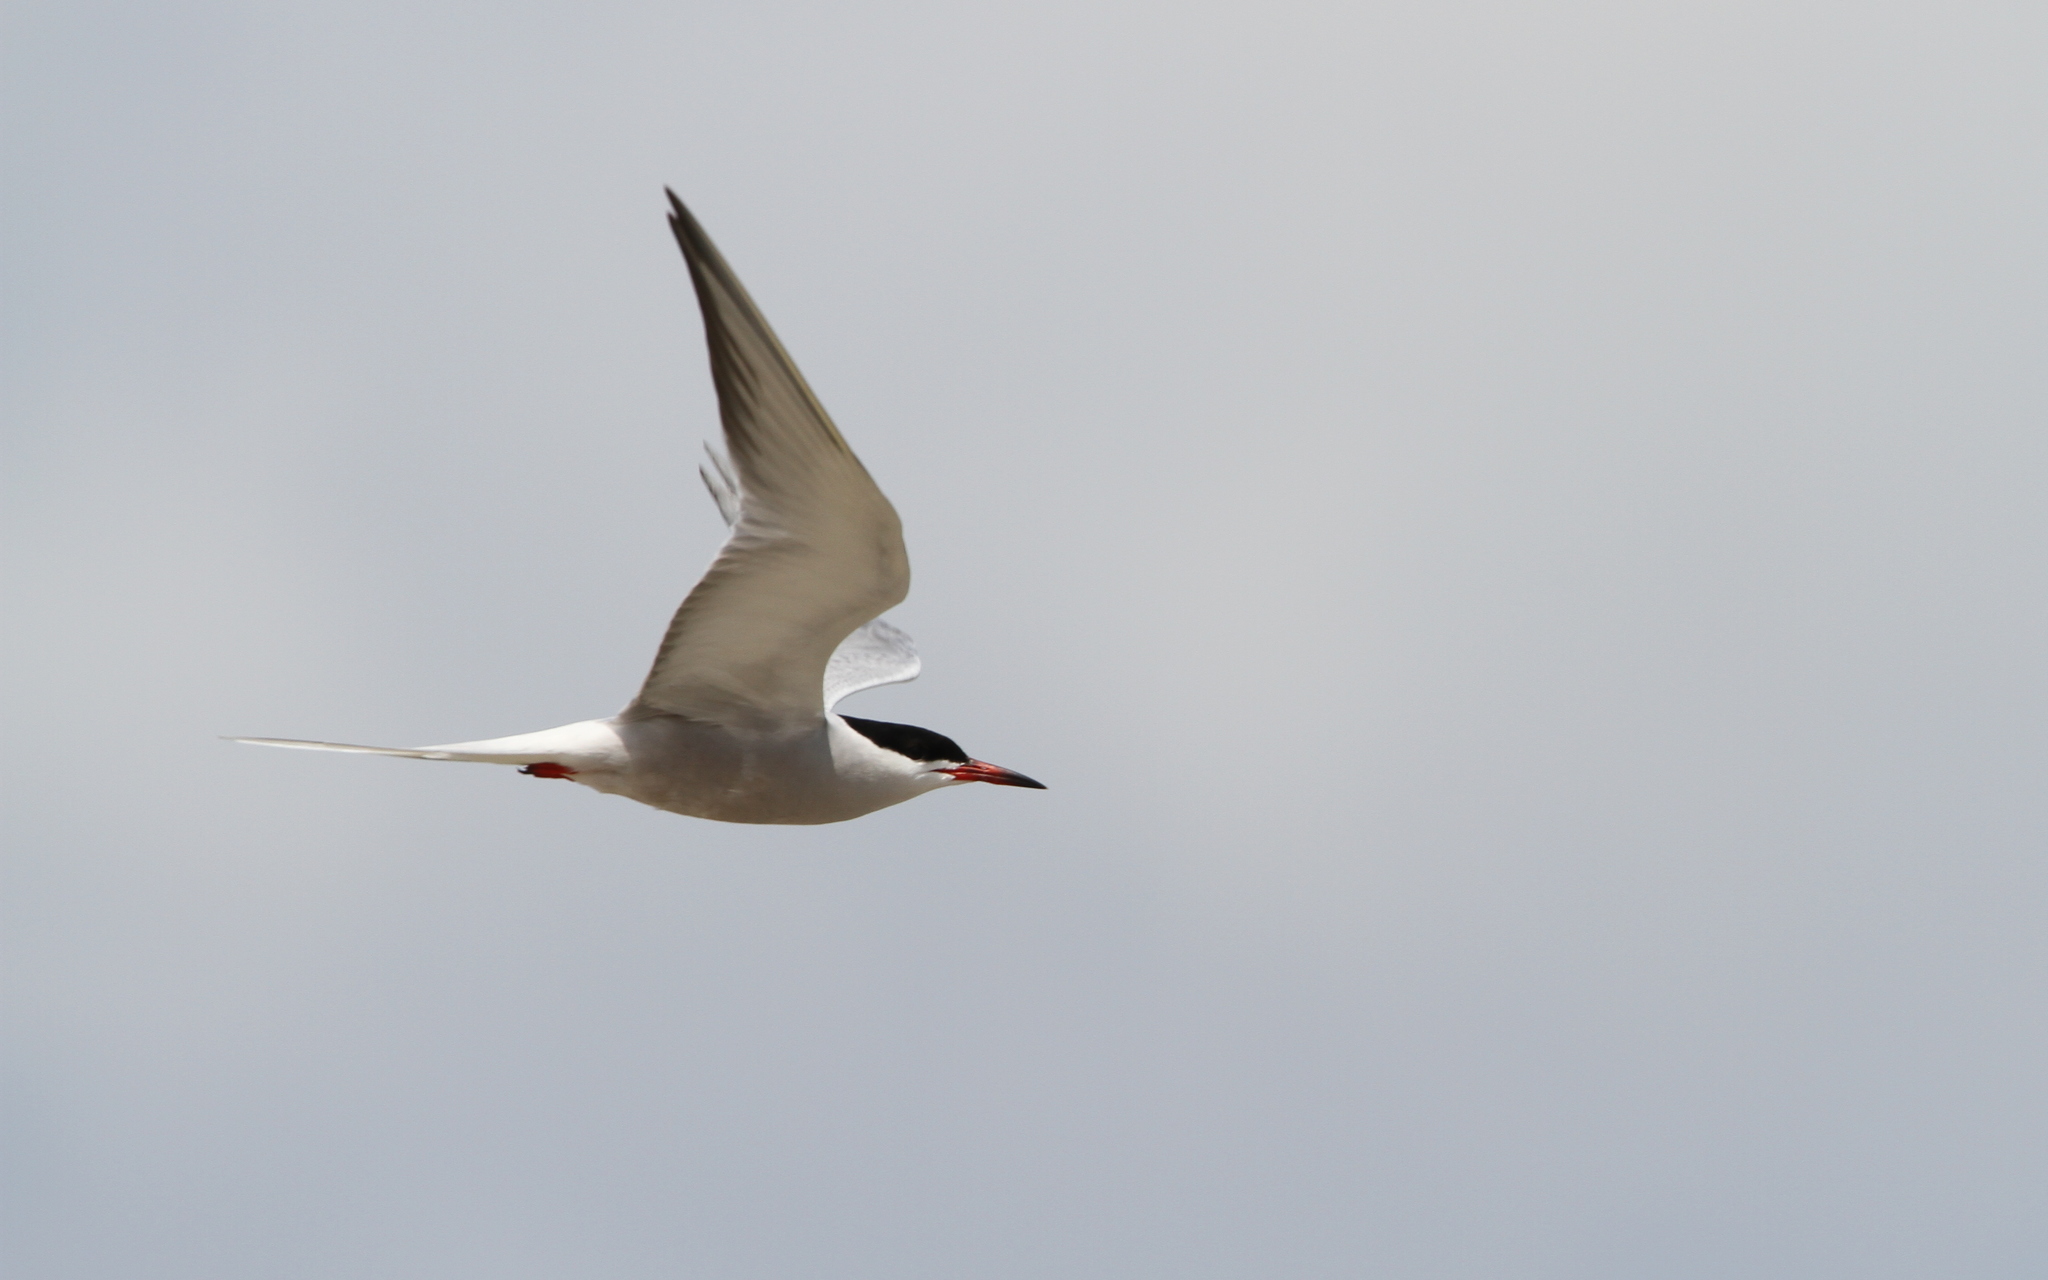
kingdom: Animalia
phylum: Chordata
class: Aves
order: Charadriiformes
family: Laridae
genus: Sterna
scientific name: Sterna hirundo
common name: Common tern
